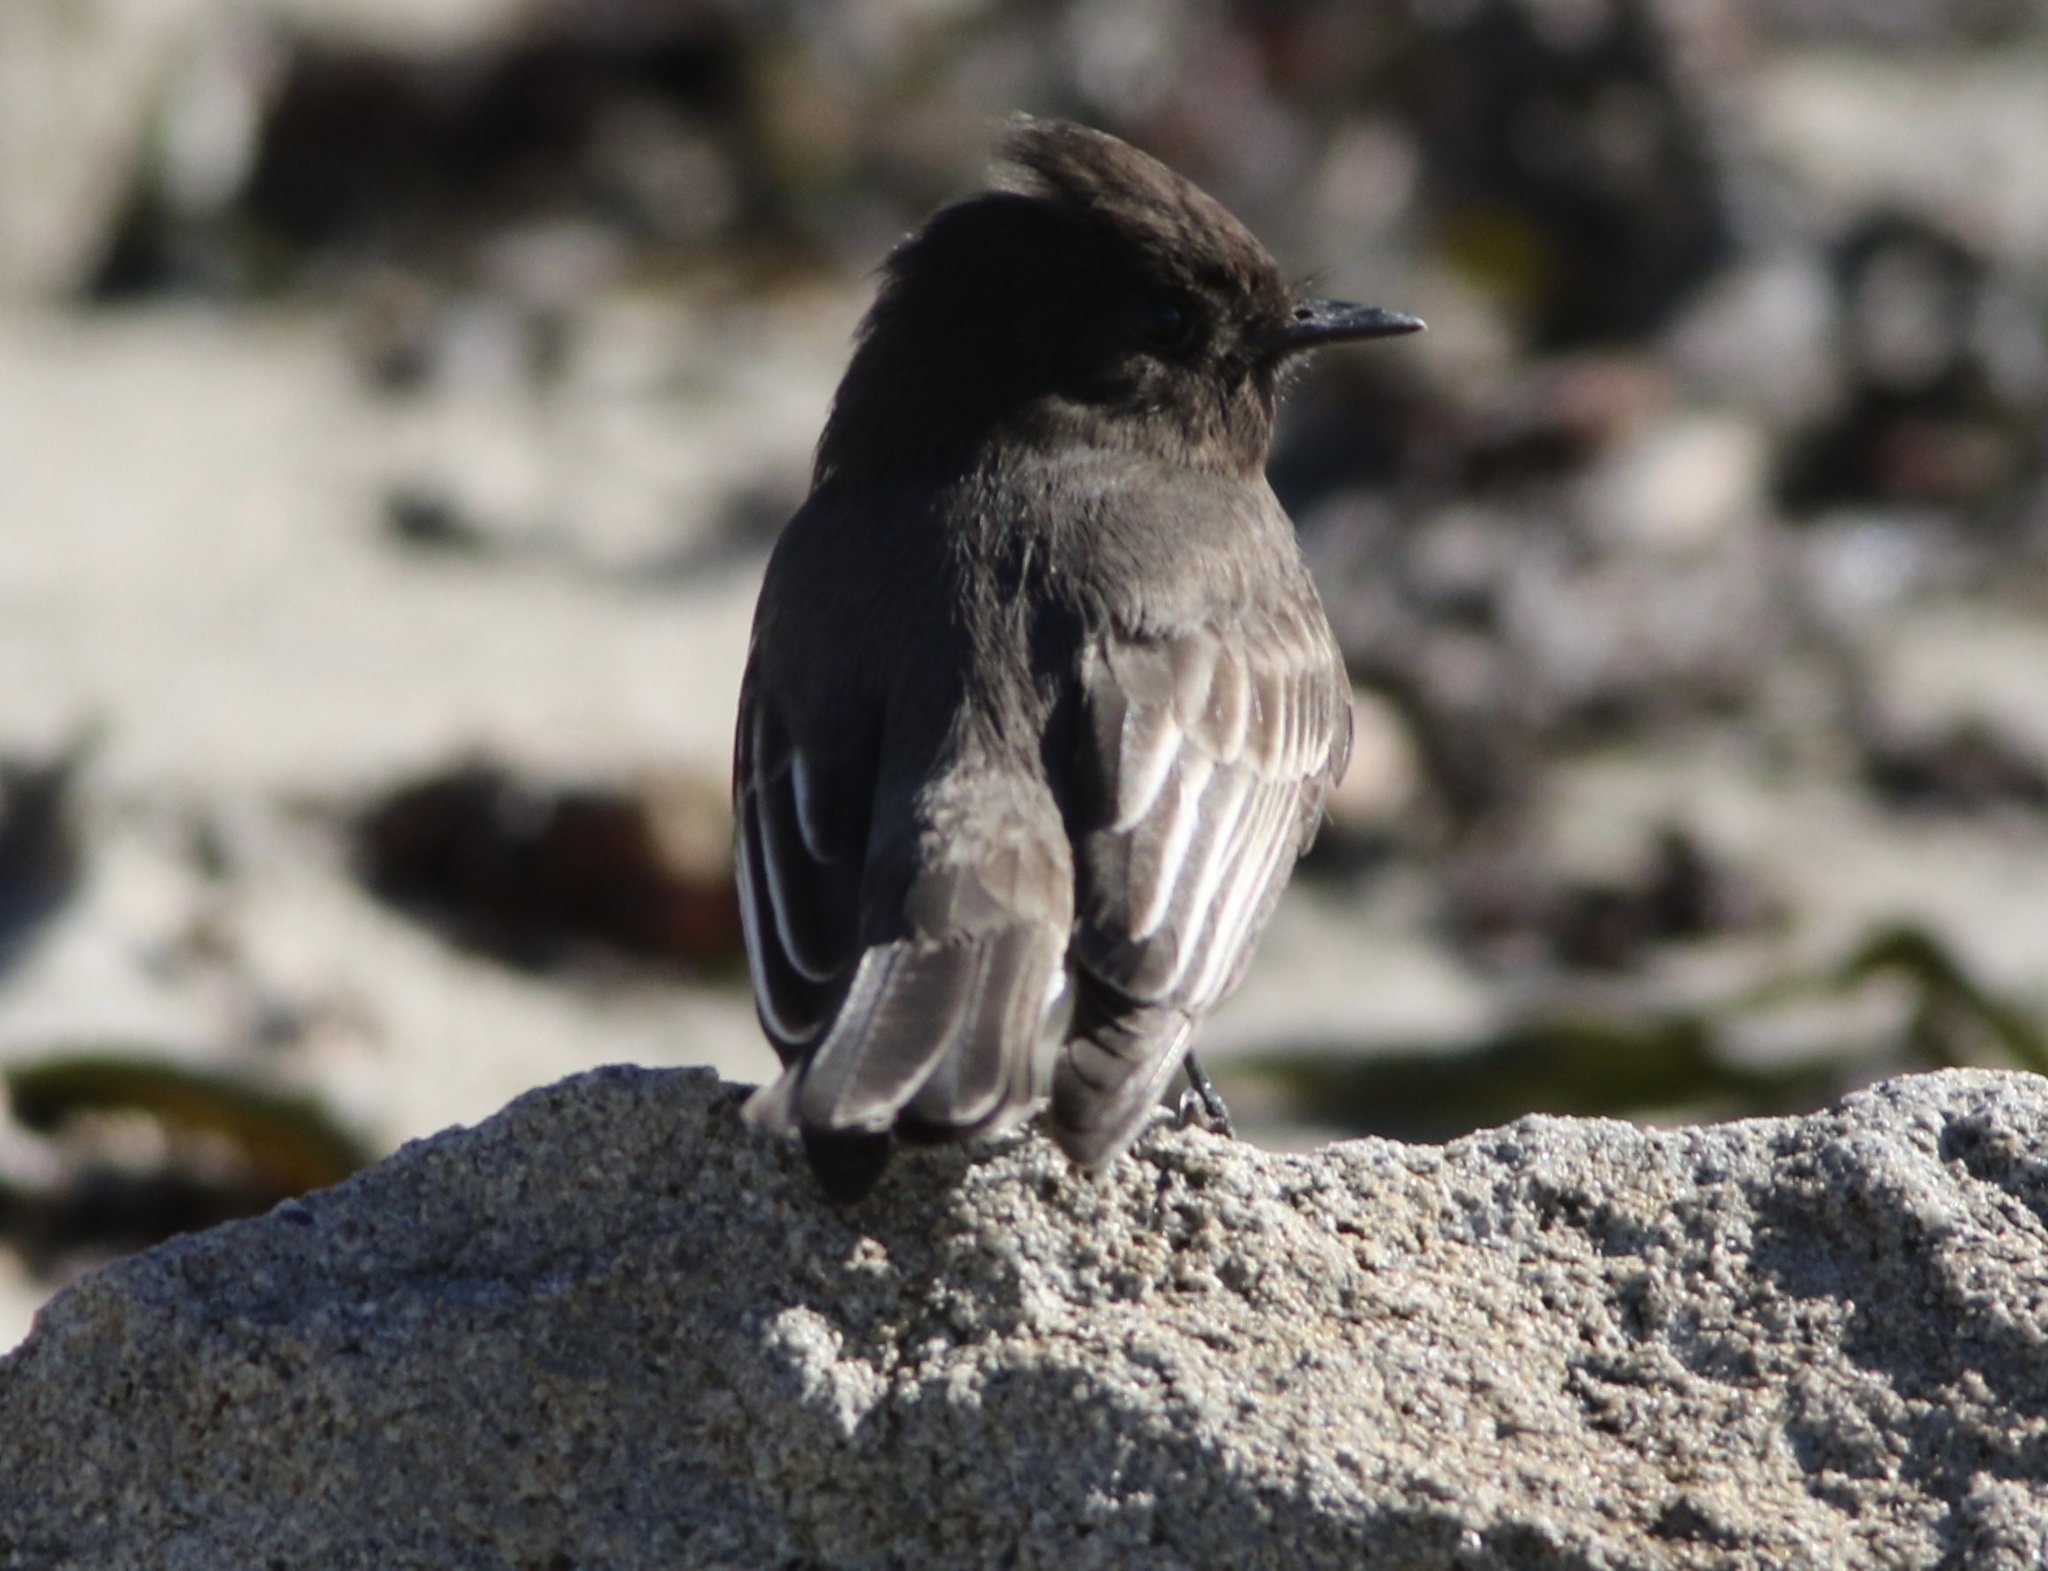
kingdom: Animalia
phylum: Chordata
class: Aves
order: Passeriformes
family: Tyrannidae
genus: Sayornis
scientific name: Sayornis nigricans
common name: Black phoebe
